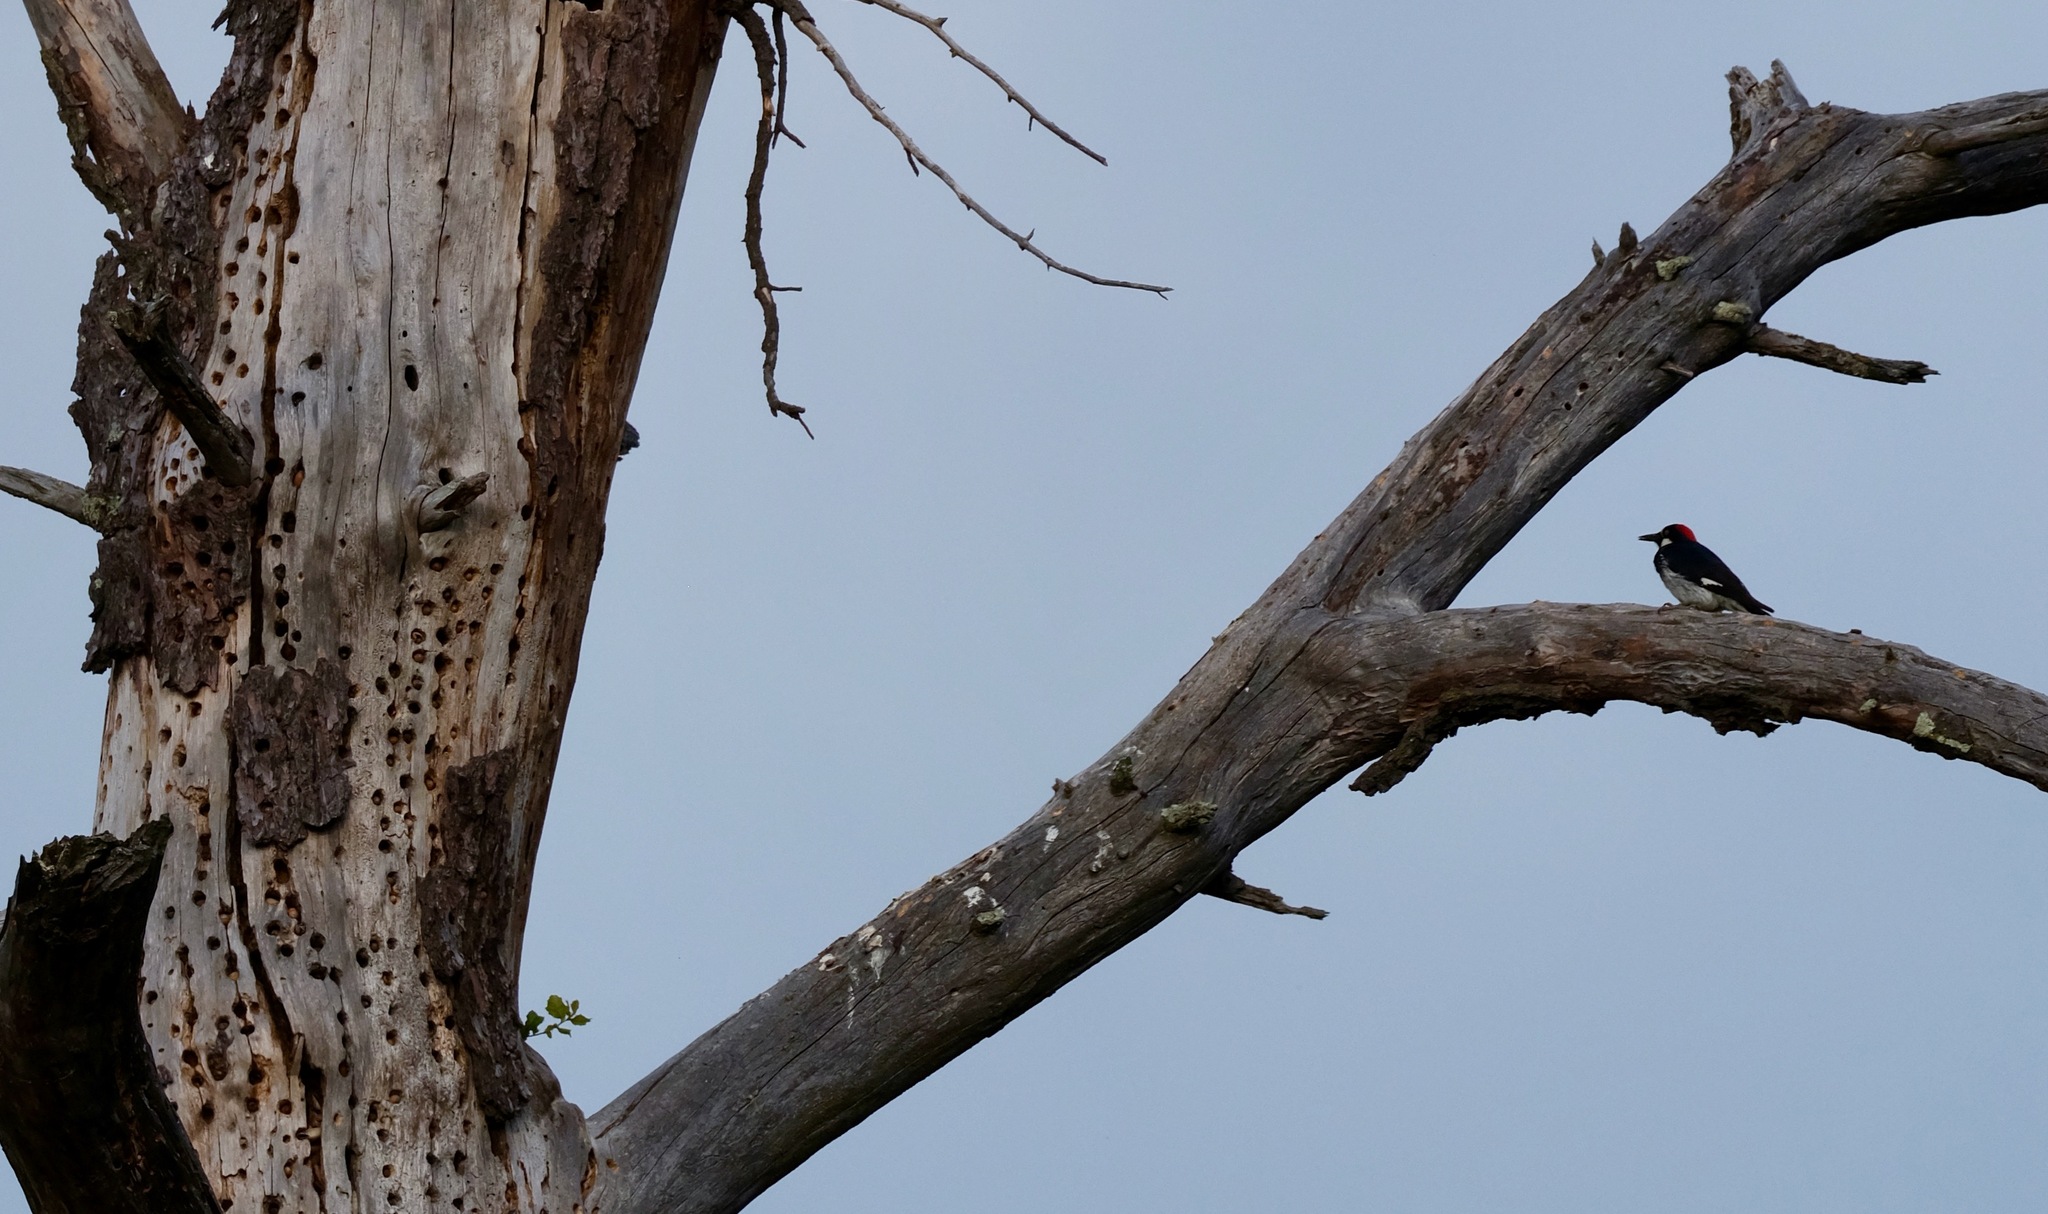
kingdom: Animalia
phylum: Chordata
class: Aves
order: Piciformes
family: Picidae
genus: Melanerpes
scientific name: Melanerpes formicivorus
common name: Acorn woodpecker
